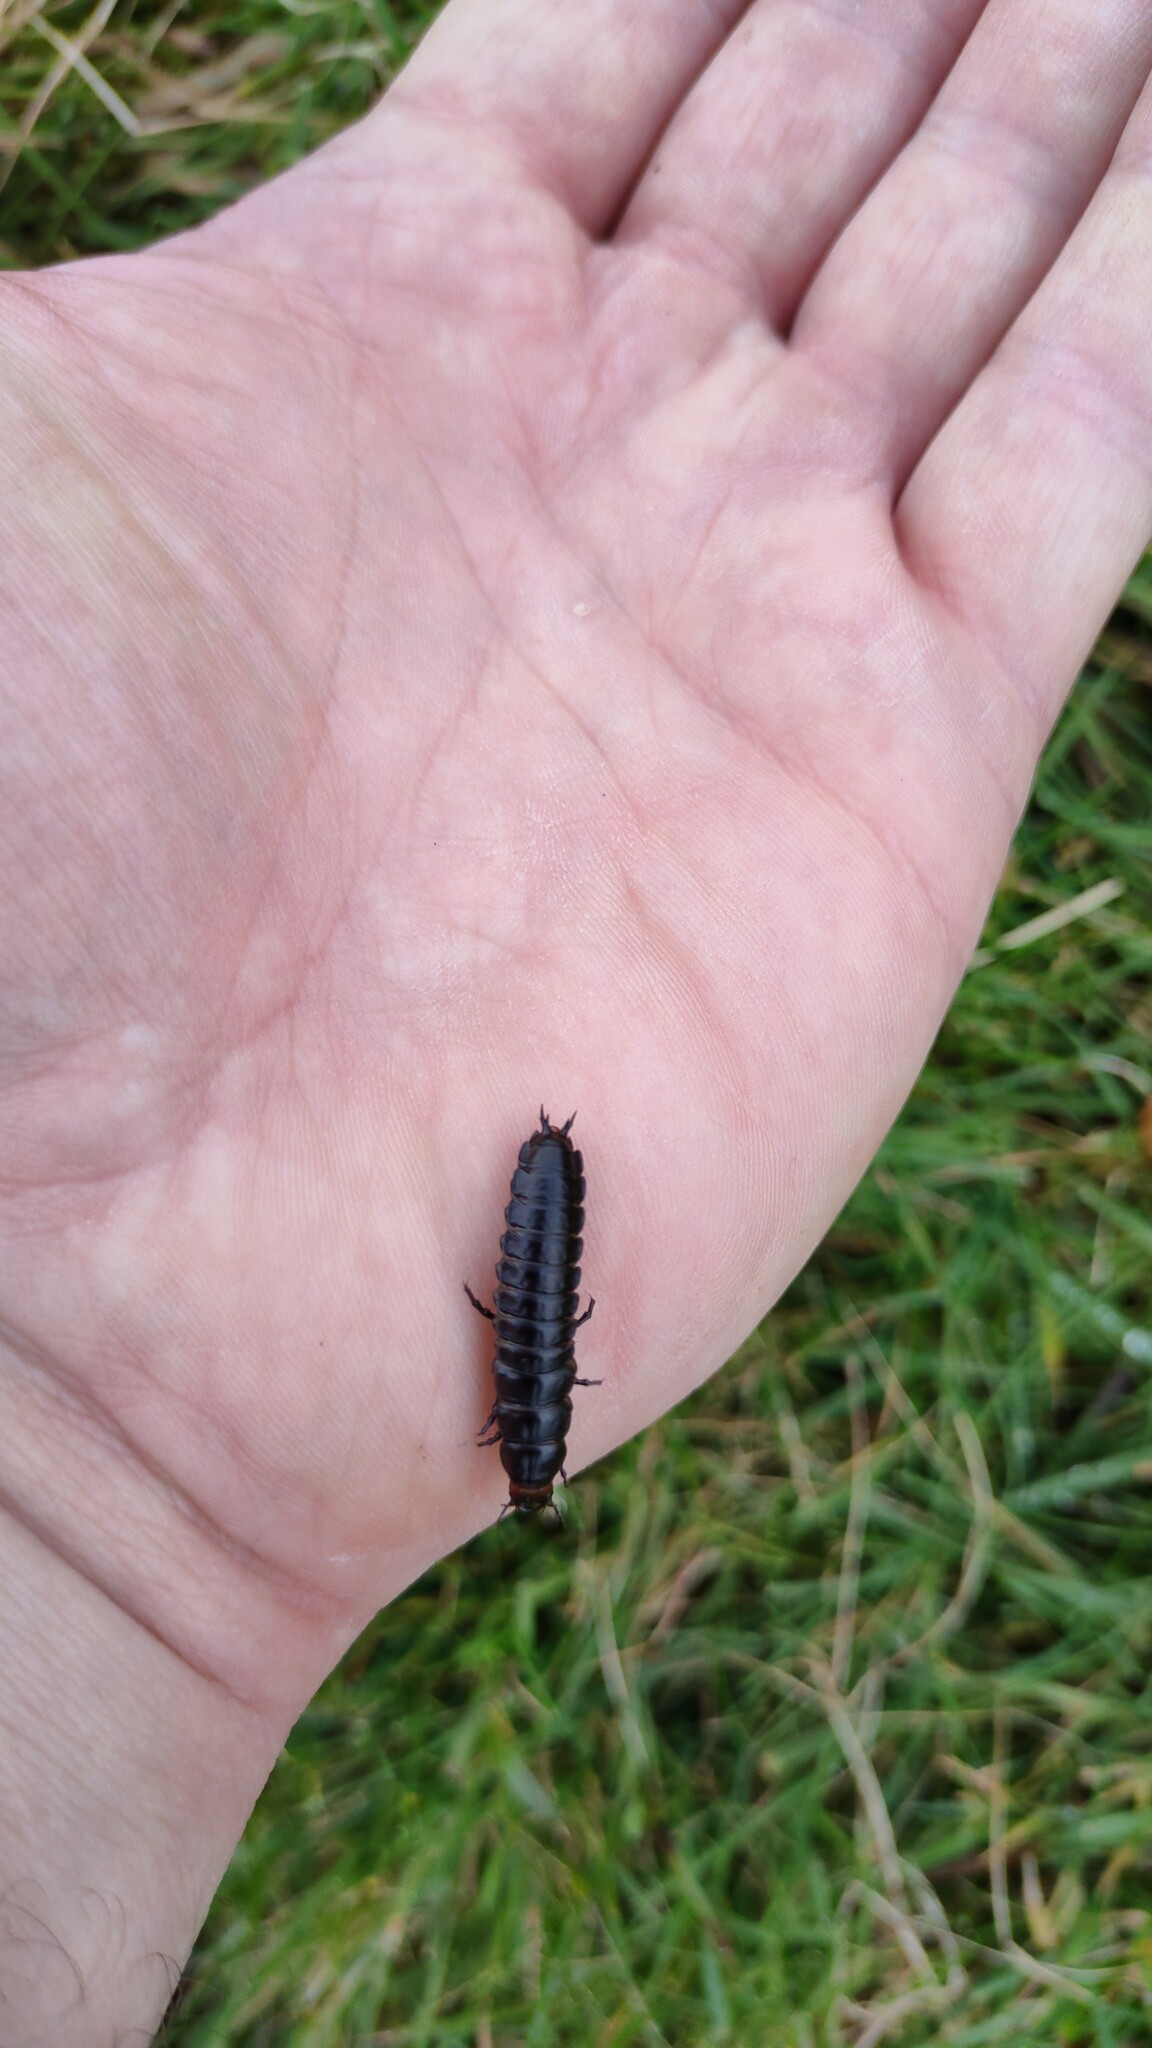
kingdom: Animalia
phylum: Arthropoda
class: Insecta
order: Coleoptera
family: Carabidae
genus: Carabus
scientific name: Carabus violaceus
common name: Violet ground beetle
